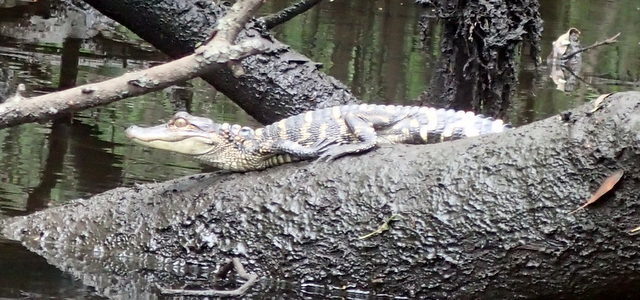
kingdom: Animalia
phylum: Chordata
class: Crocodylia
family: Alligatoridae
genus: Alligator
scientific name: Alligator mississippiensis
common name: American alligator
